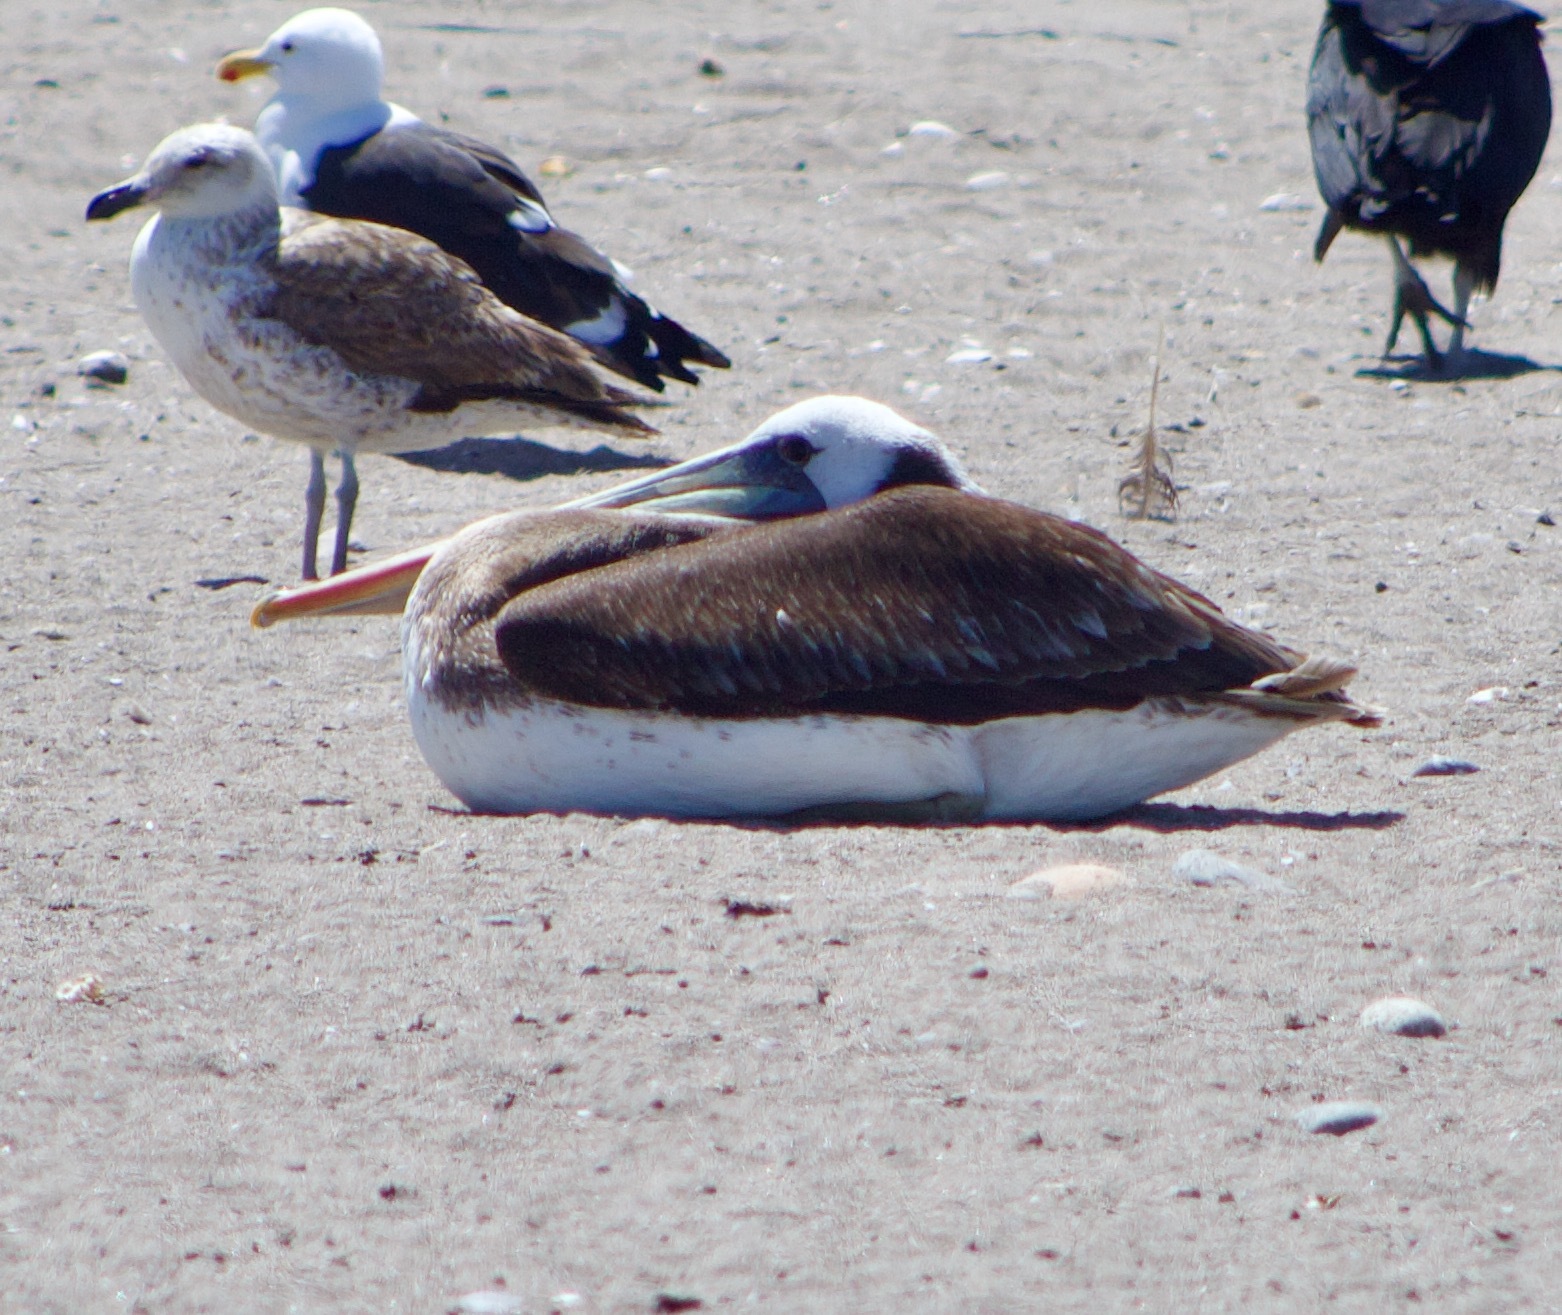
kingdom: Animalia
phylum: Chordata
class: Aves
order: Pelecaniformes
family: Pelecanidae
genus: Pelecanus
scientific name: Pelecanus thagus
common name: Peruvian pelican
